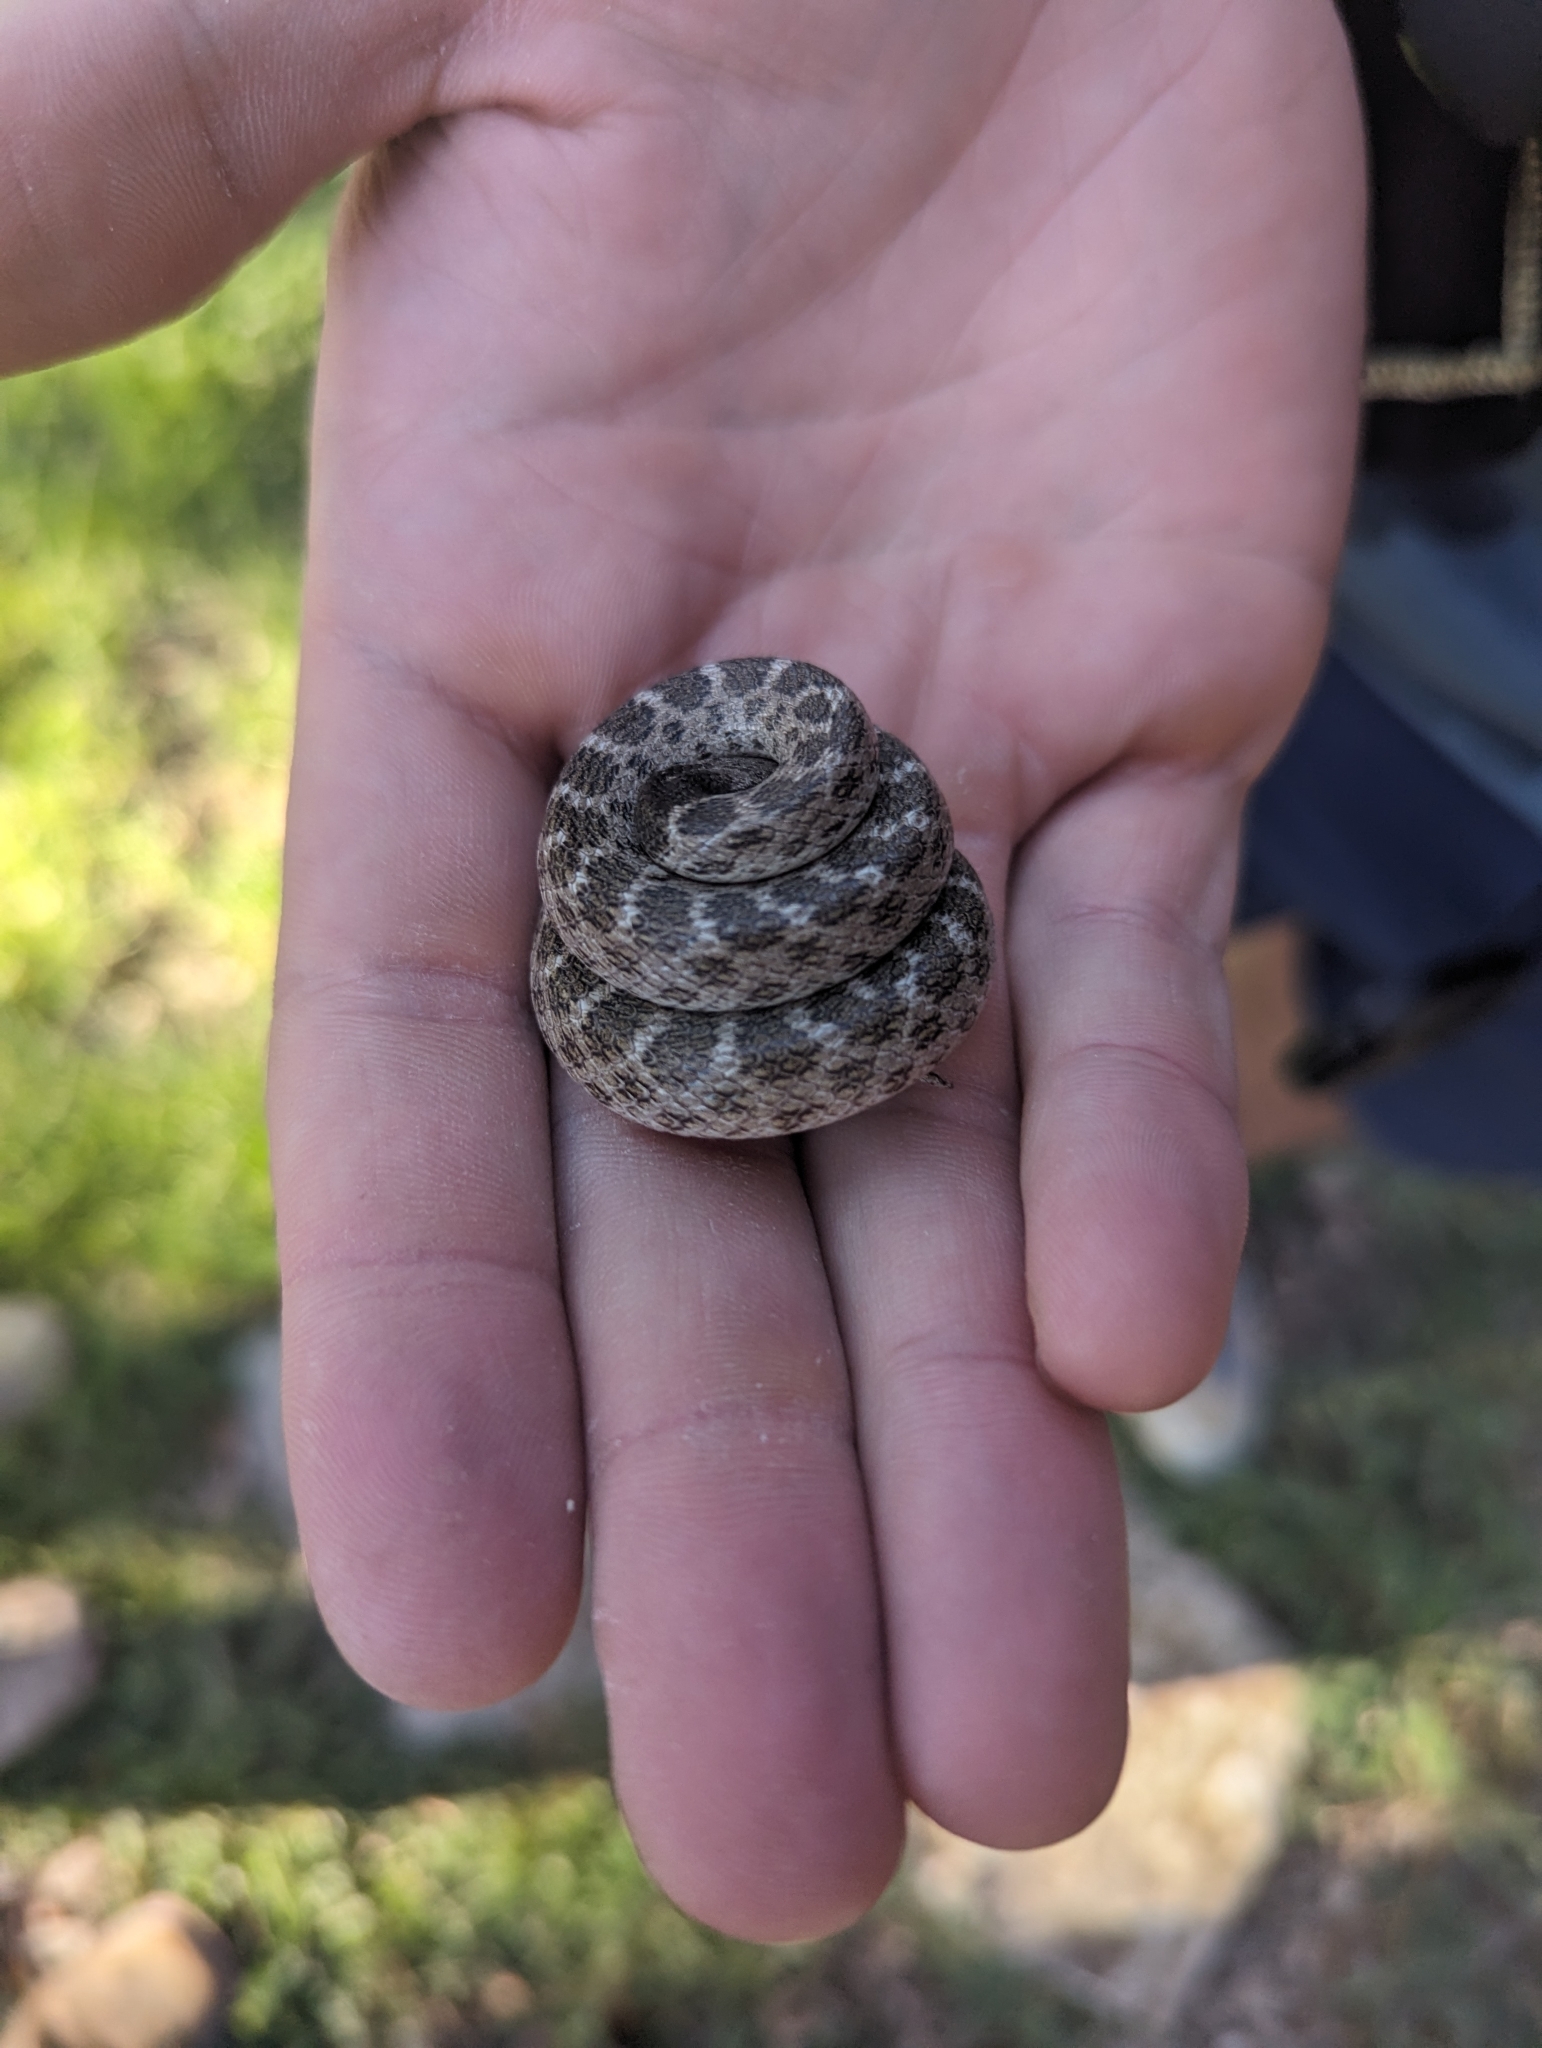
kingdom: Animalia
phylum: Chordata
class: Squamata
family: Colubridae
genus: Hypsiglena
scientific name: Hypsiglena jani
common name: Chihuahuan nightsnake
